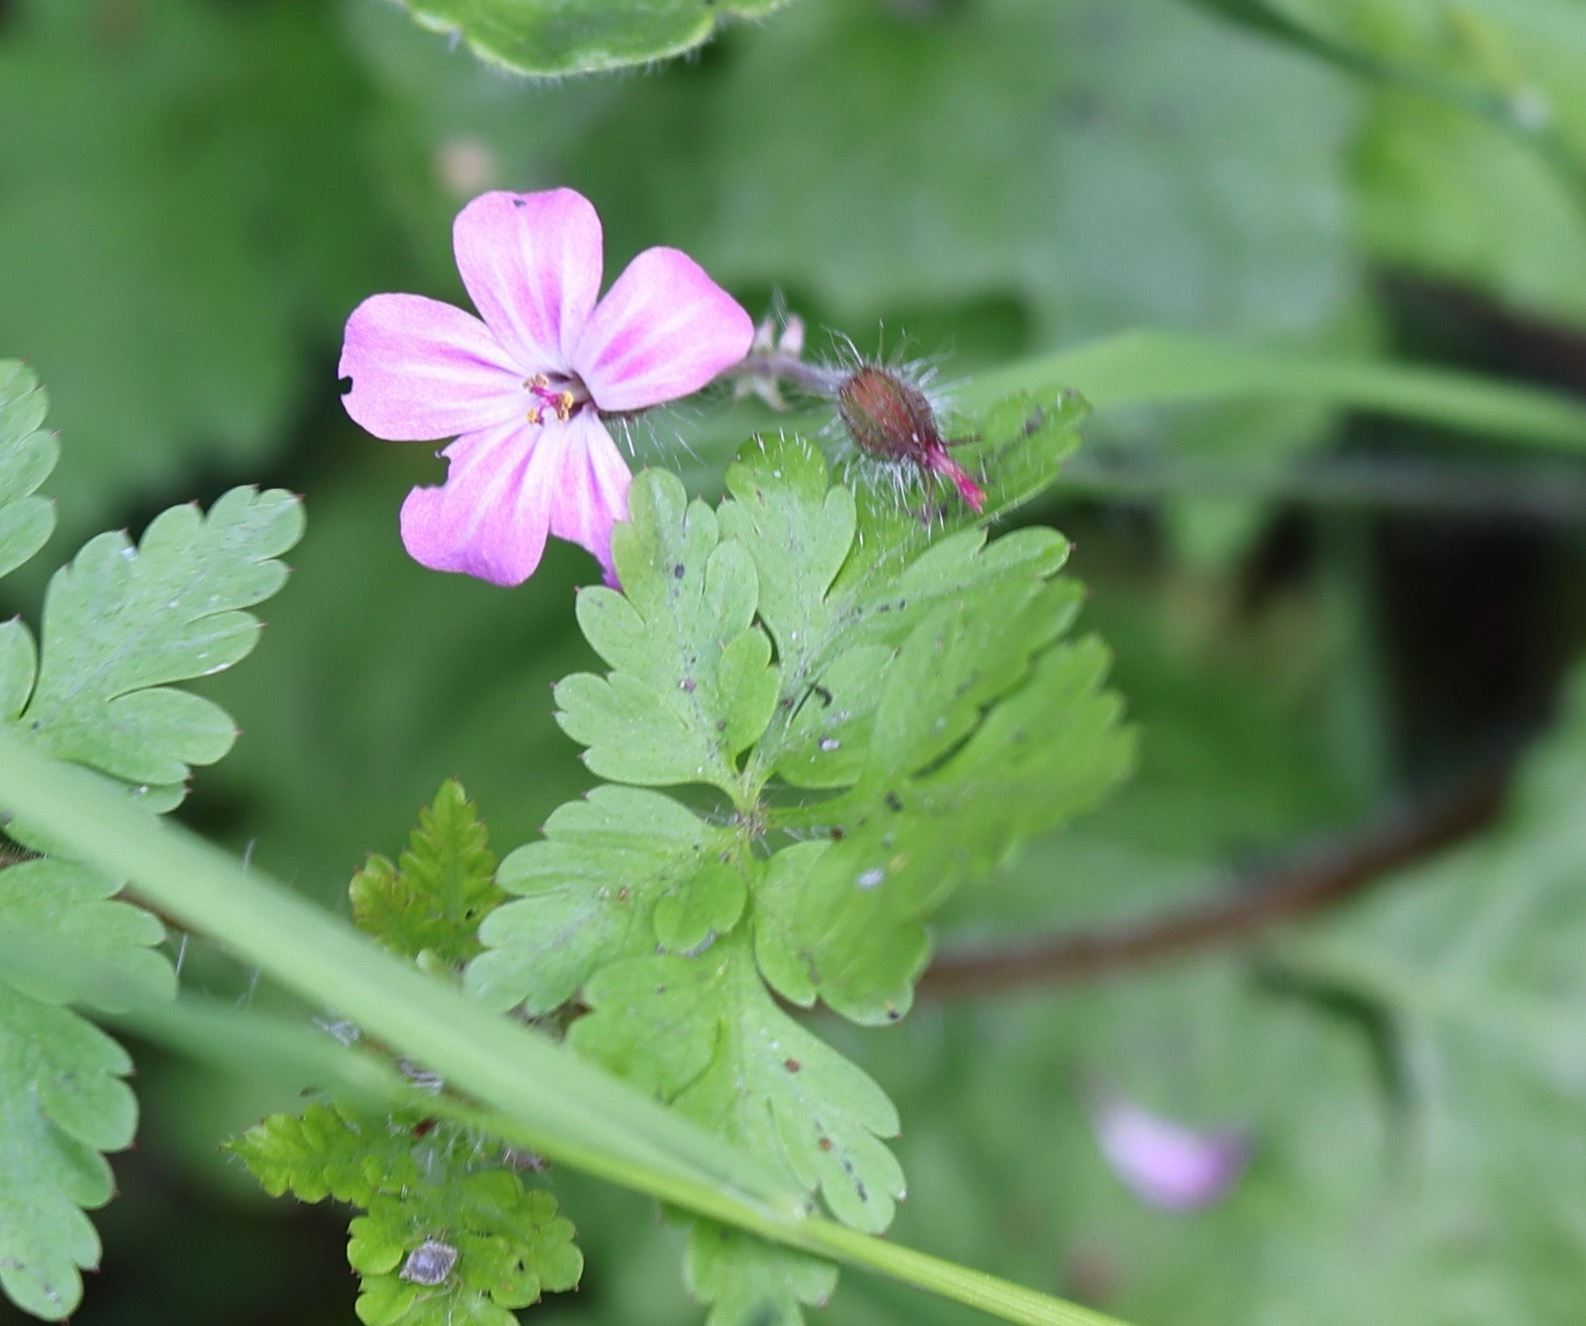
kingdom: Plantae
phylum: Tracheophyta
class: Magnoliopsida
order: Geraniales
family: Geraniaceae
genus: Geranium
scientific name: Geranium robertianum
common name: Herb-robert
